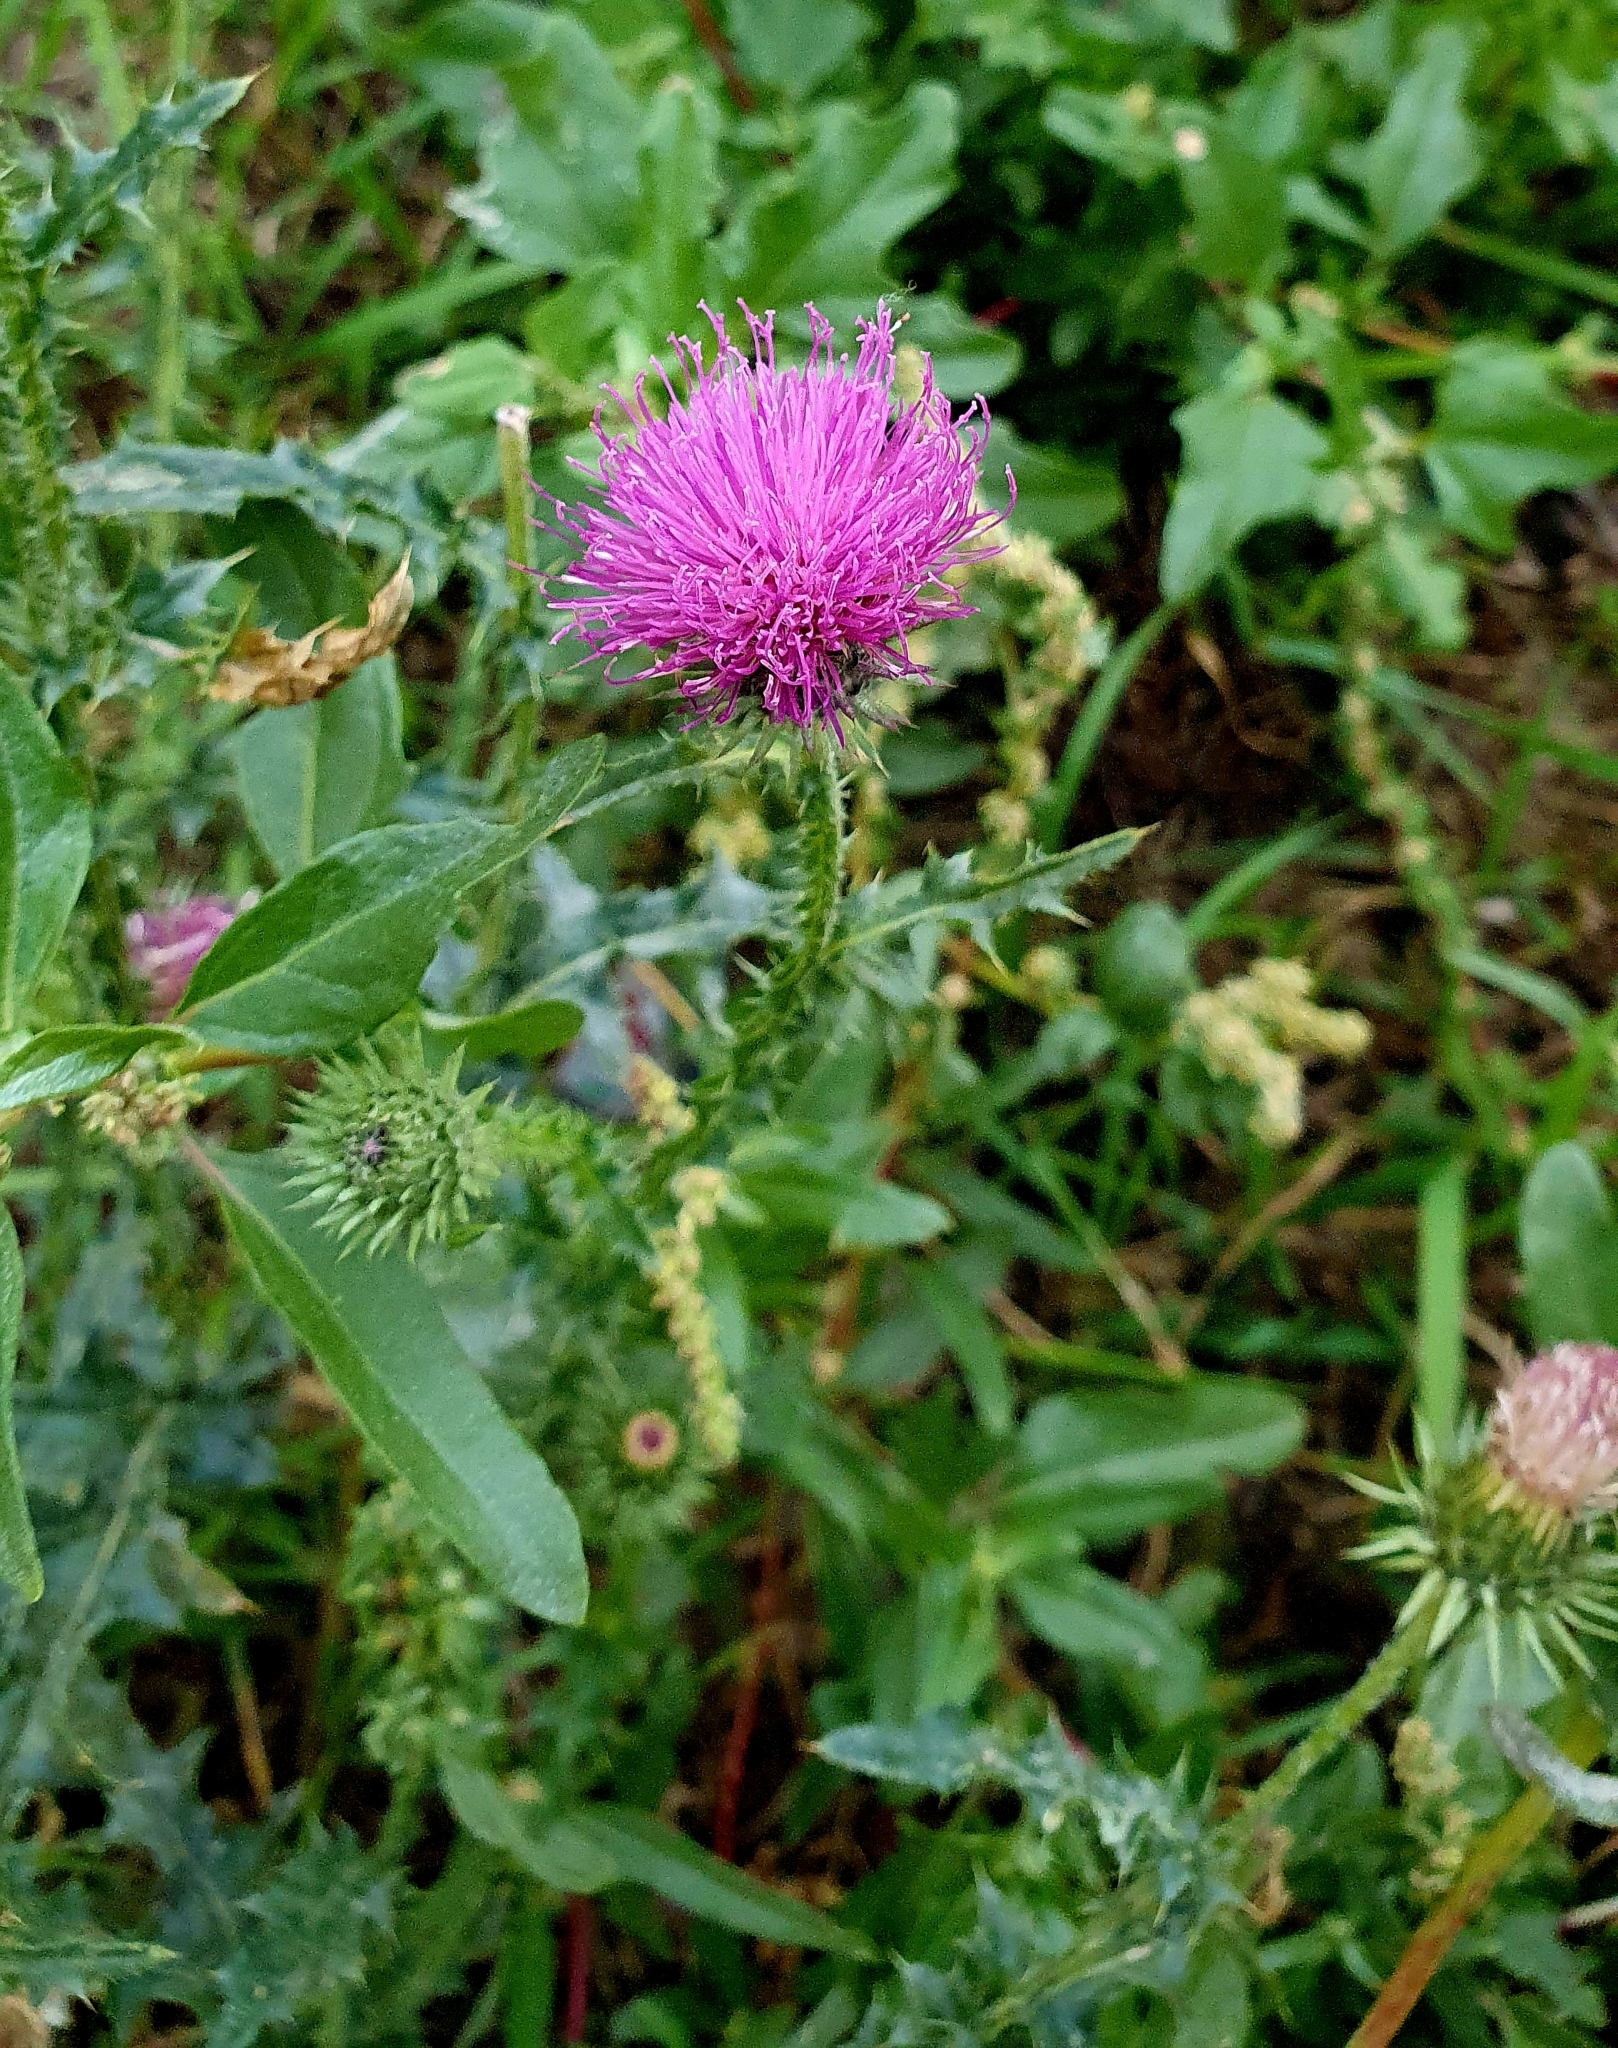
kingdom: Plantae
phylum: Tracheophyta
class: Magnoliopsida
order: Asterales
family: Asteraceae
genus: Carduus
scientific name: Carduus acanthoides
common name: Plumeless thistle
